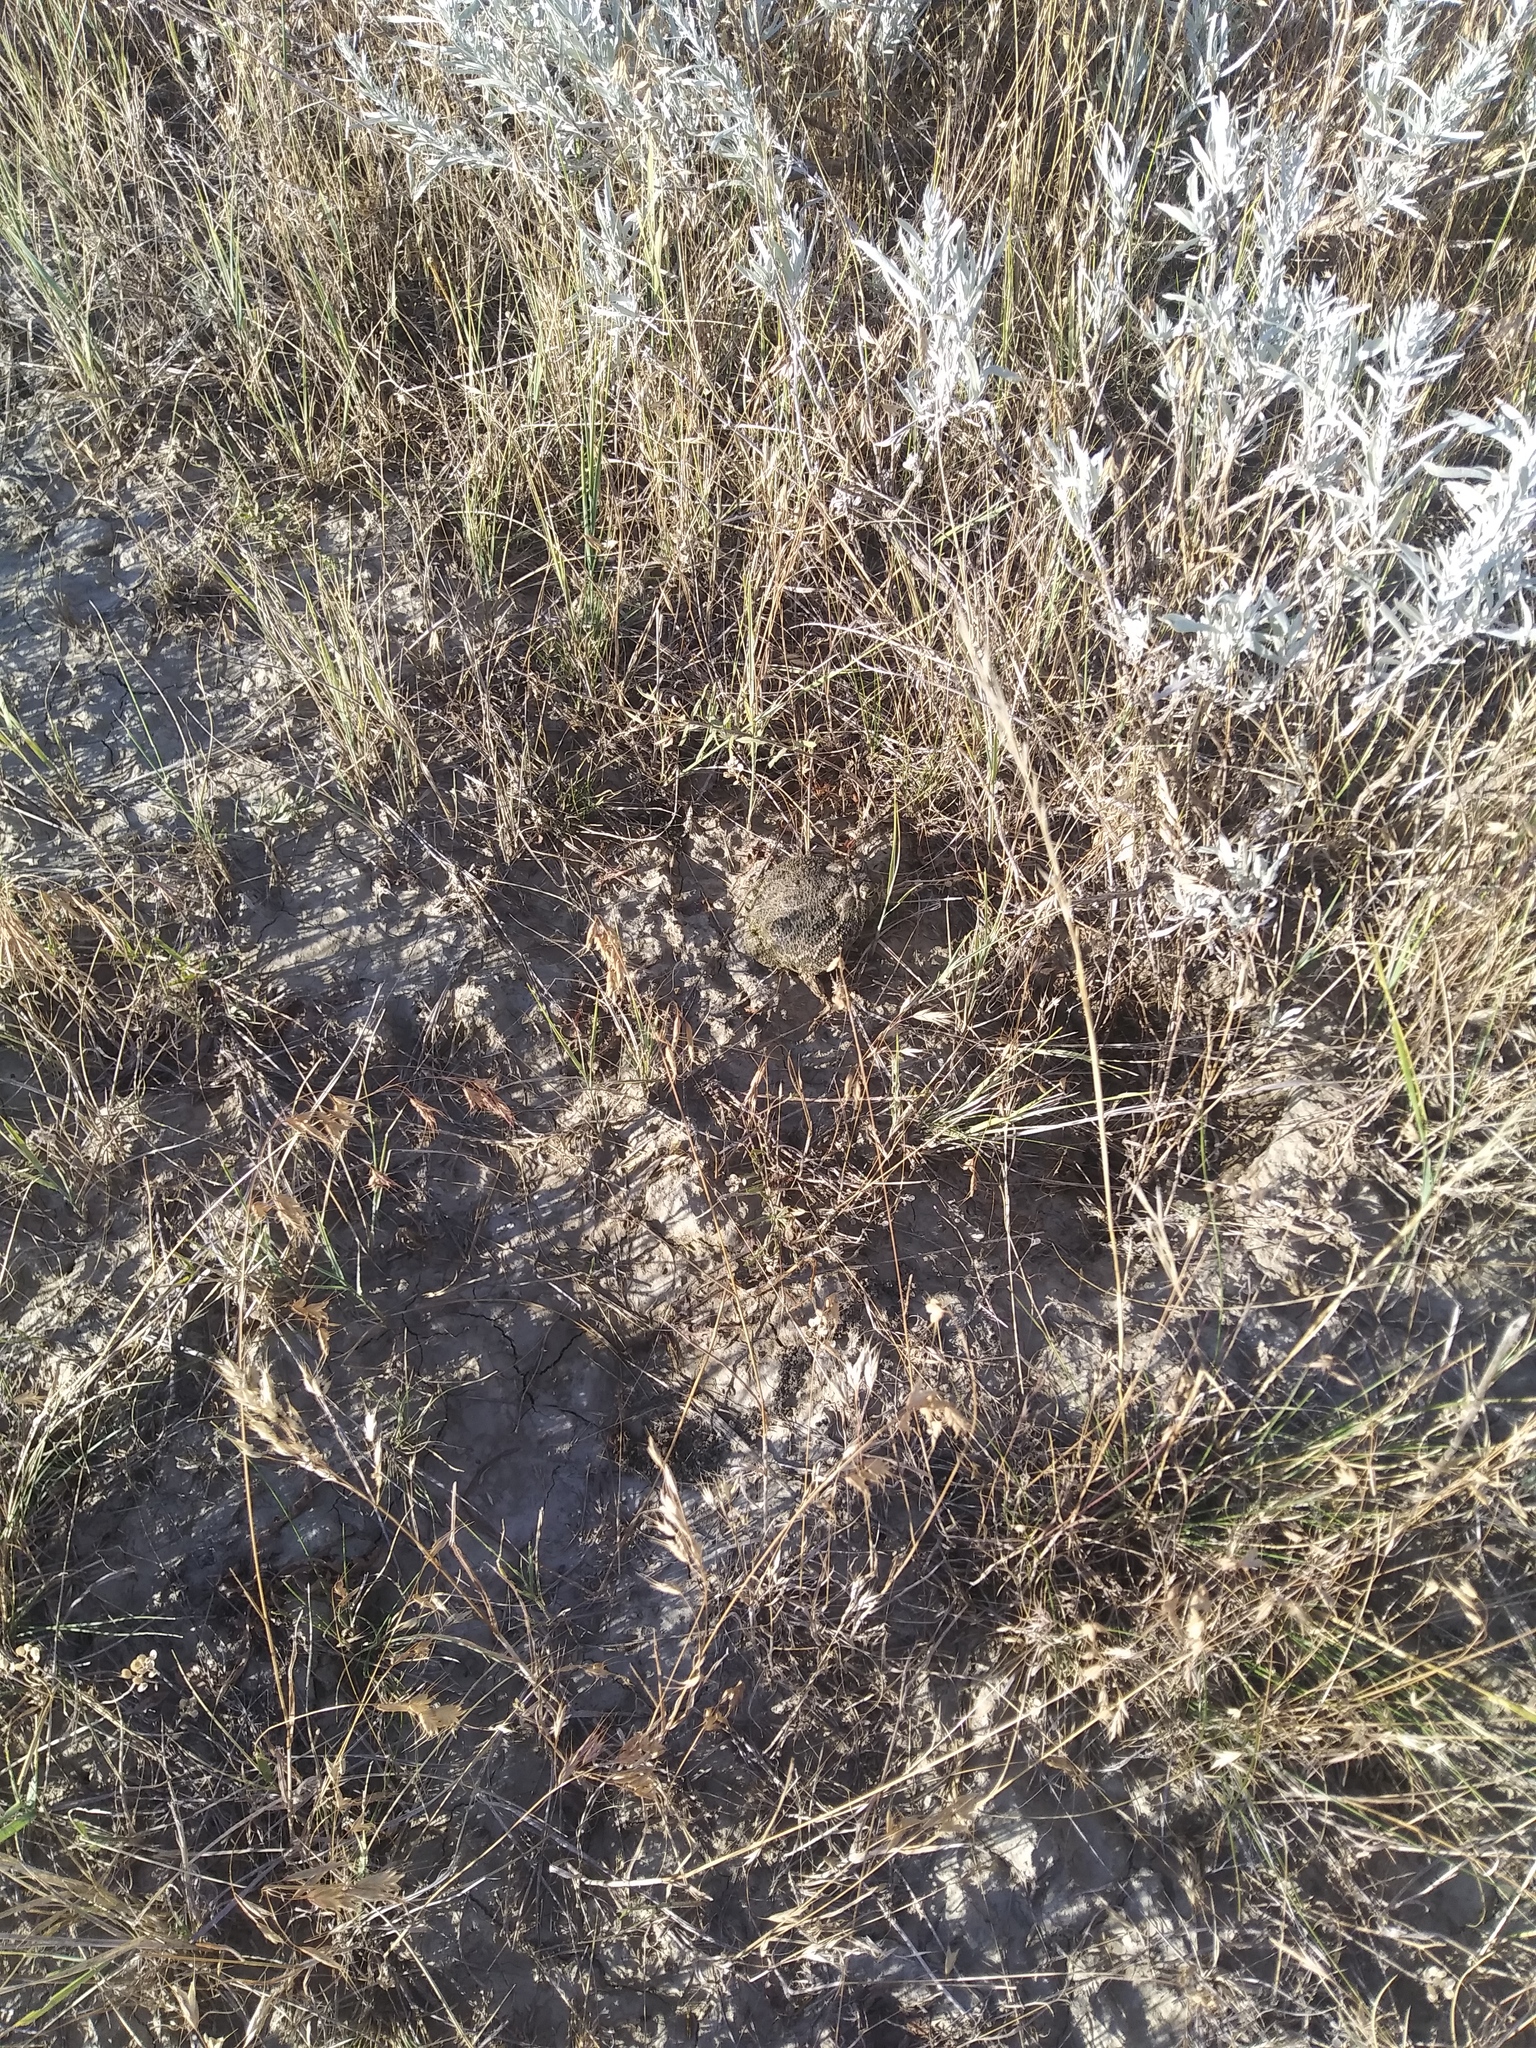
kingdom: Animalia
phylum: Chordata
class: Amphibia
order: Anura
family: Bufonidae
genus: Anaxyrus
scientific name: Anaxyrus cognatus
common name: Great plains toad
